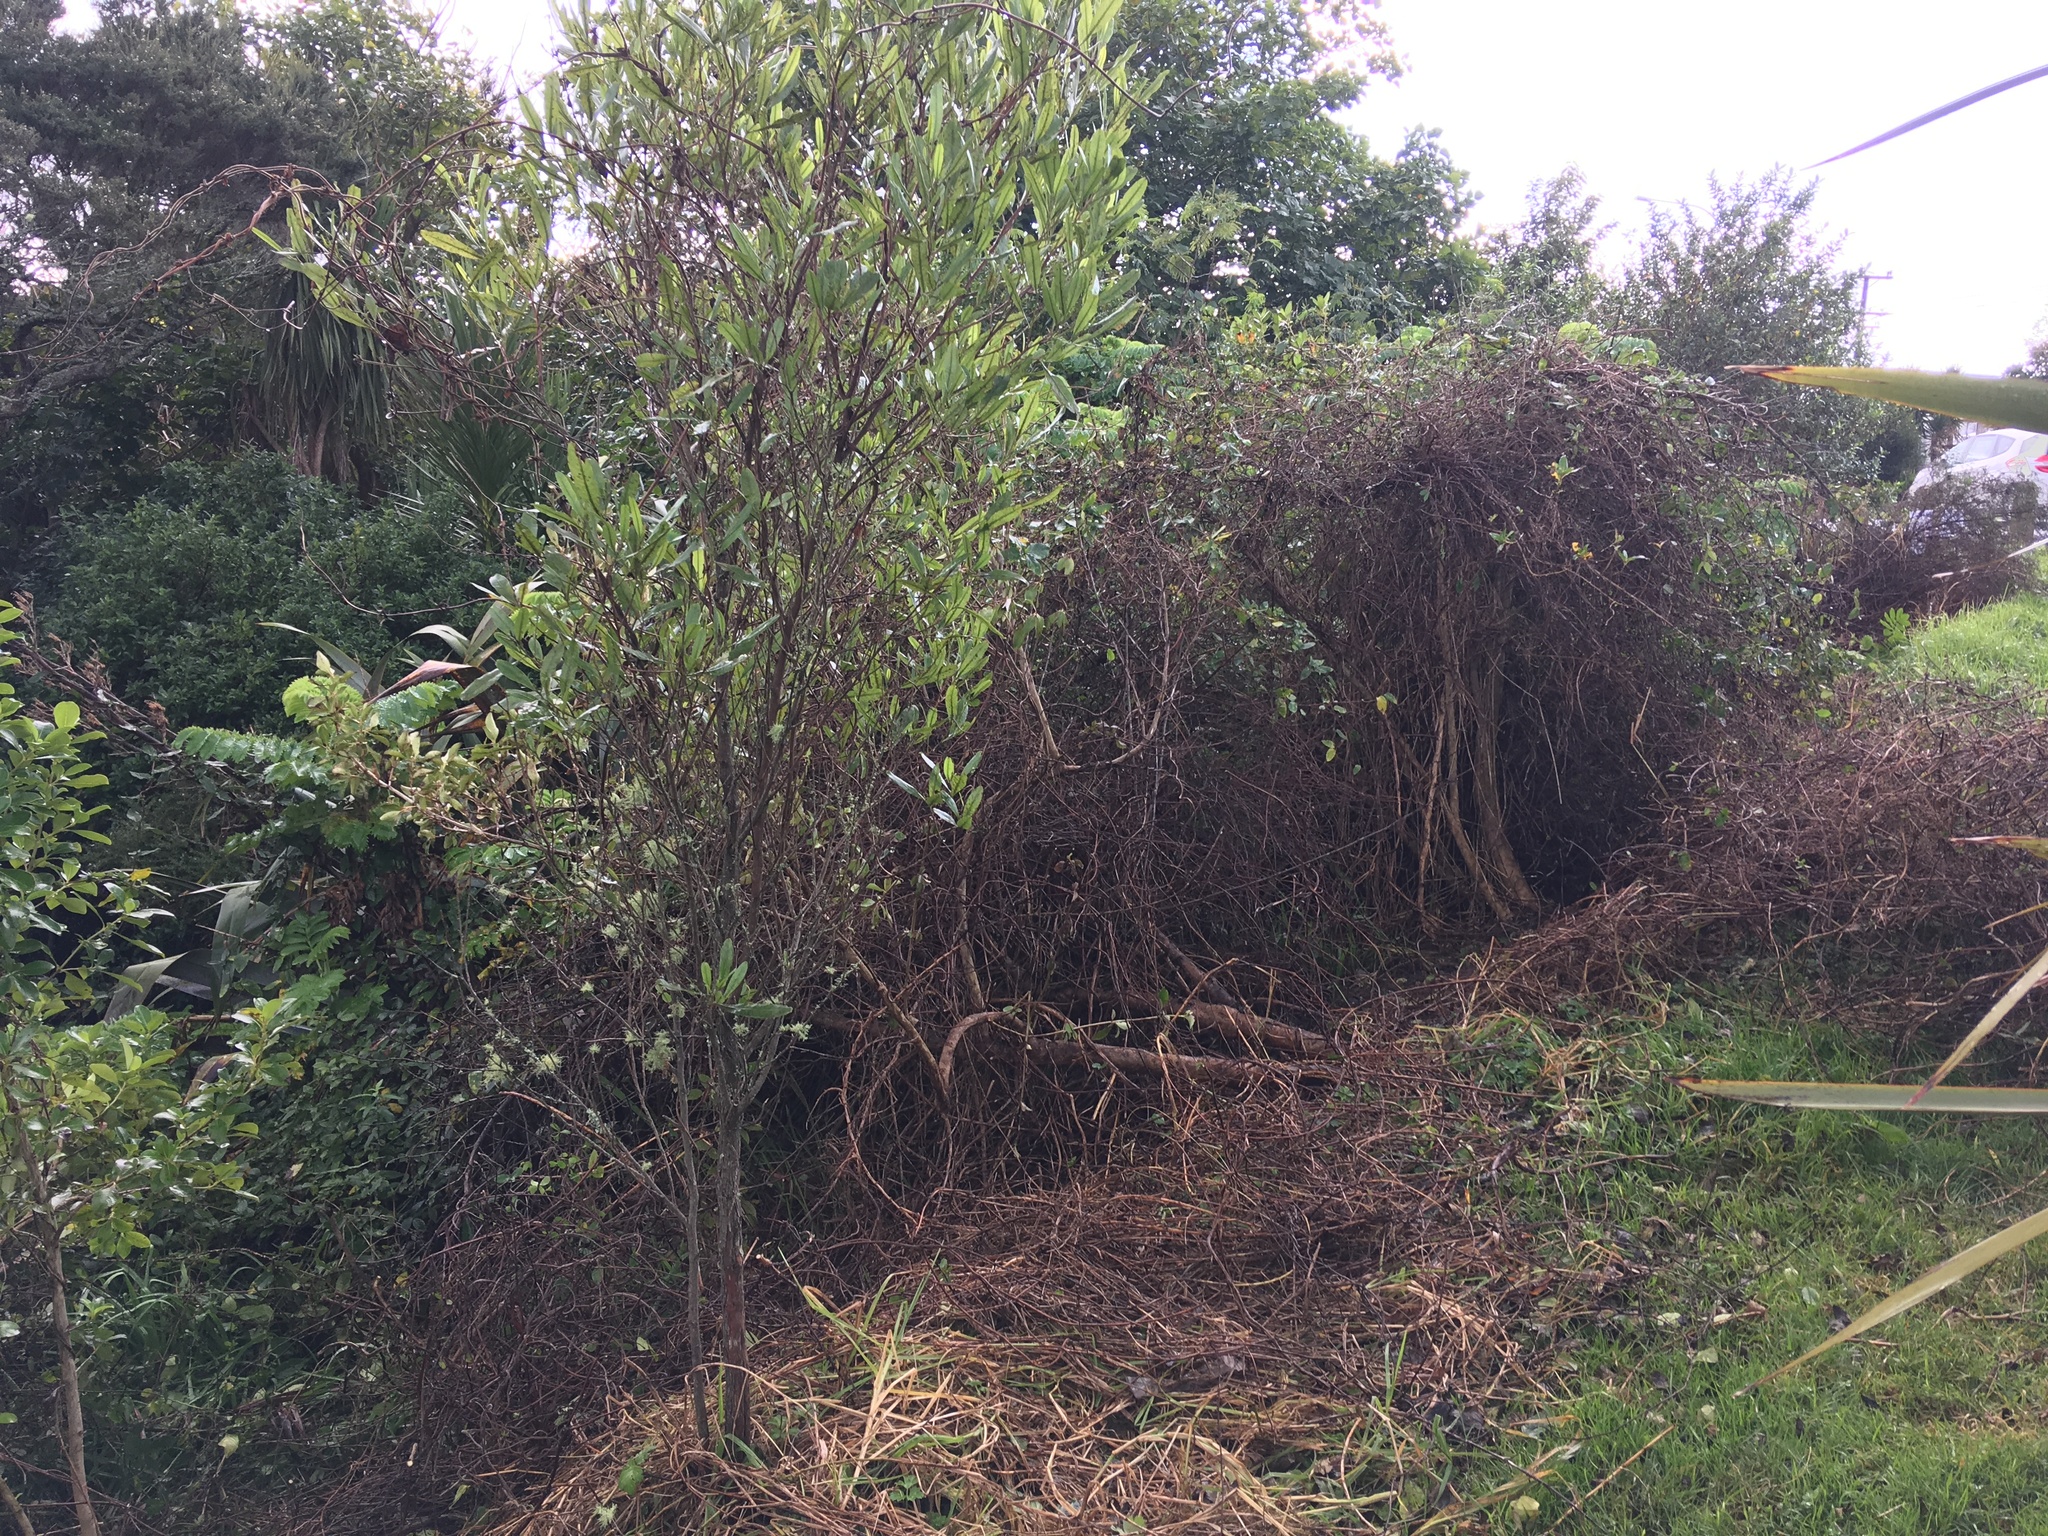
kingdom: Plantae
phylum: Tracheophyta
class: Magnoliopsida
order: Sapindales
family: Sapindaceae
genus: Dodonaea
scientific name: Dodonaea viscosa
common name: Hopbush
